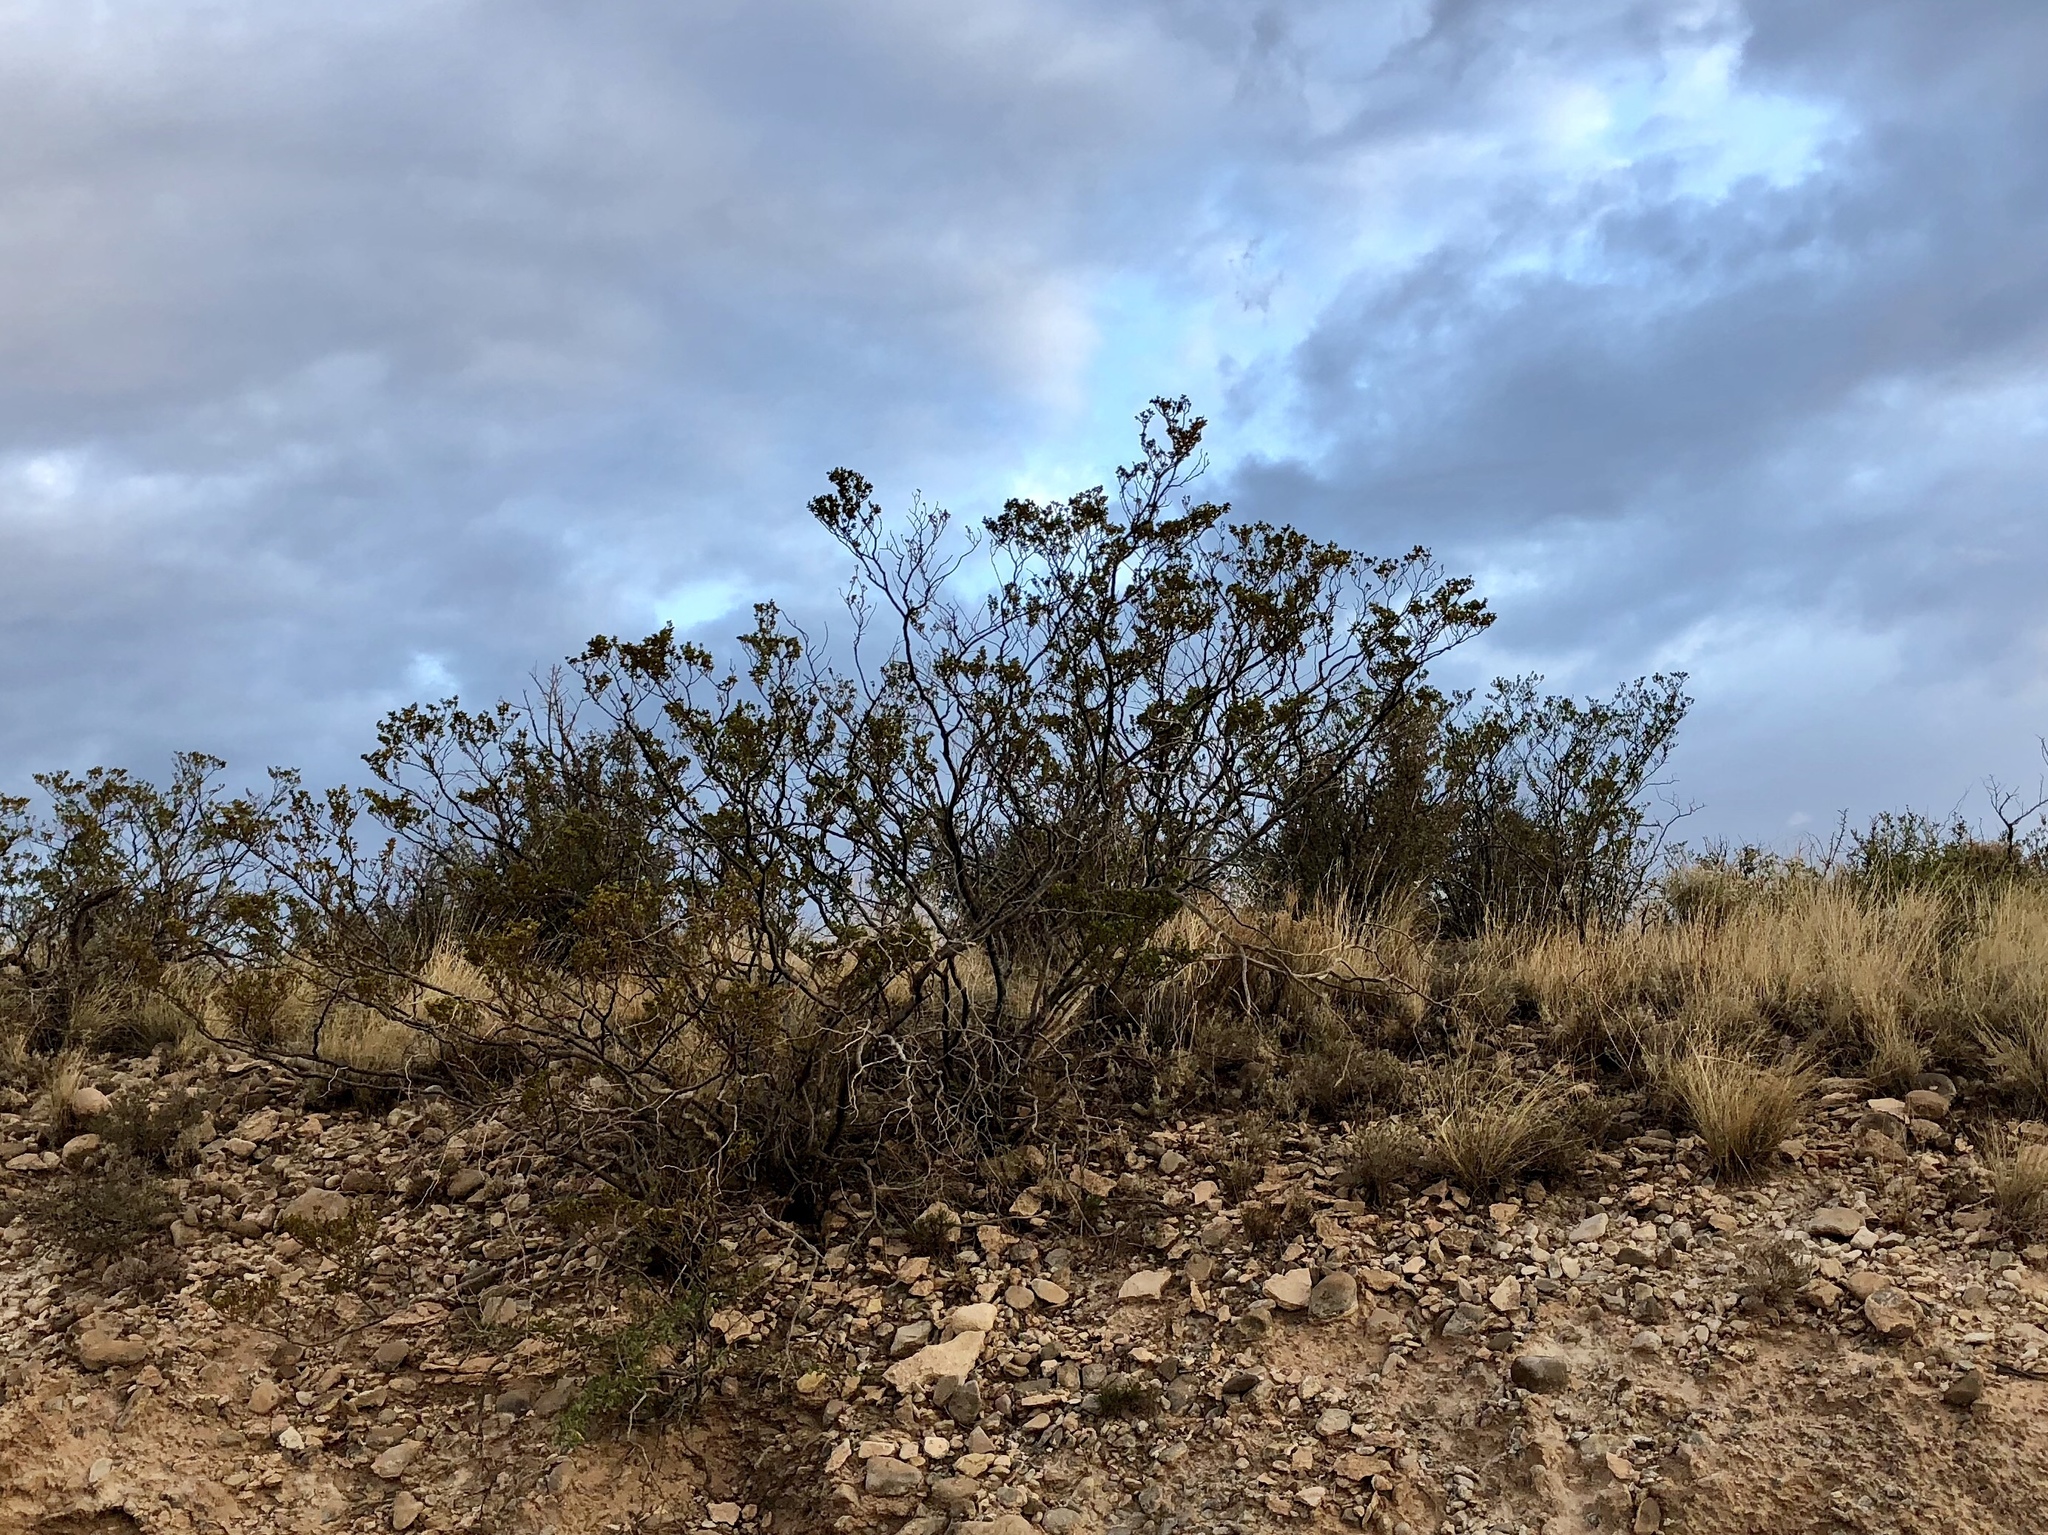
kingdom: Plantae
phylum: Tracheophyta
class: Magnoliopsida
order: Zygophyllales
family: Zygophyllaceae
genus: Larrea
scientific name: Larrea tridentata
